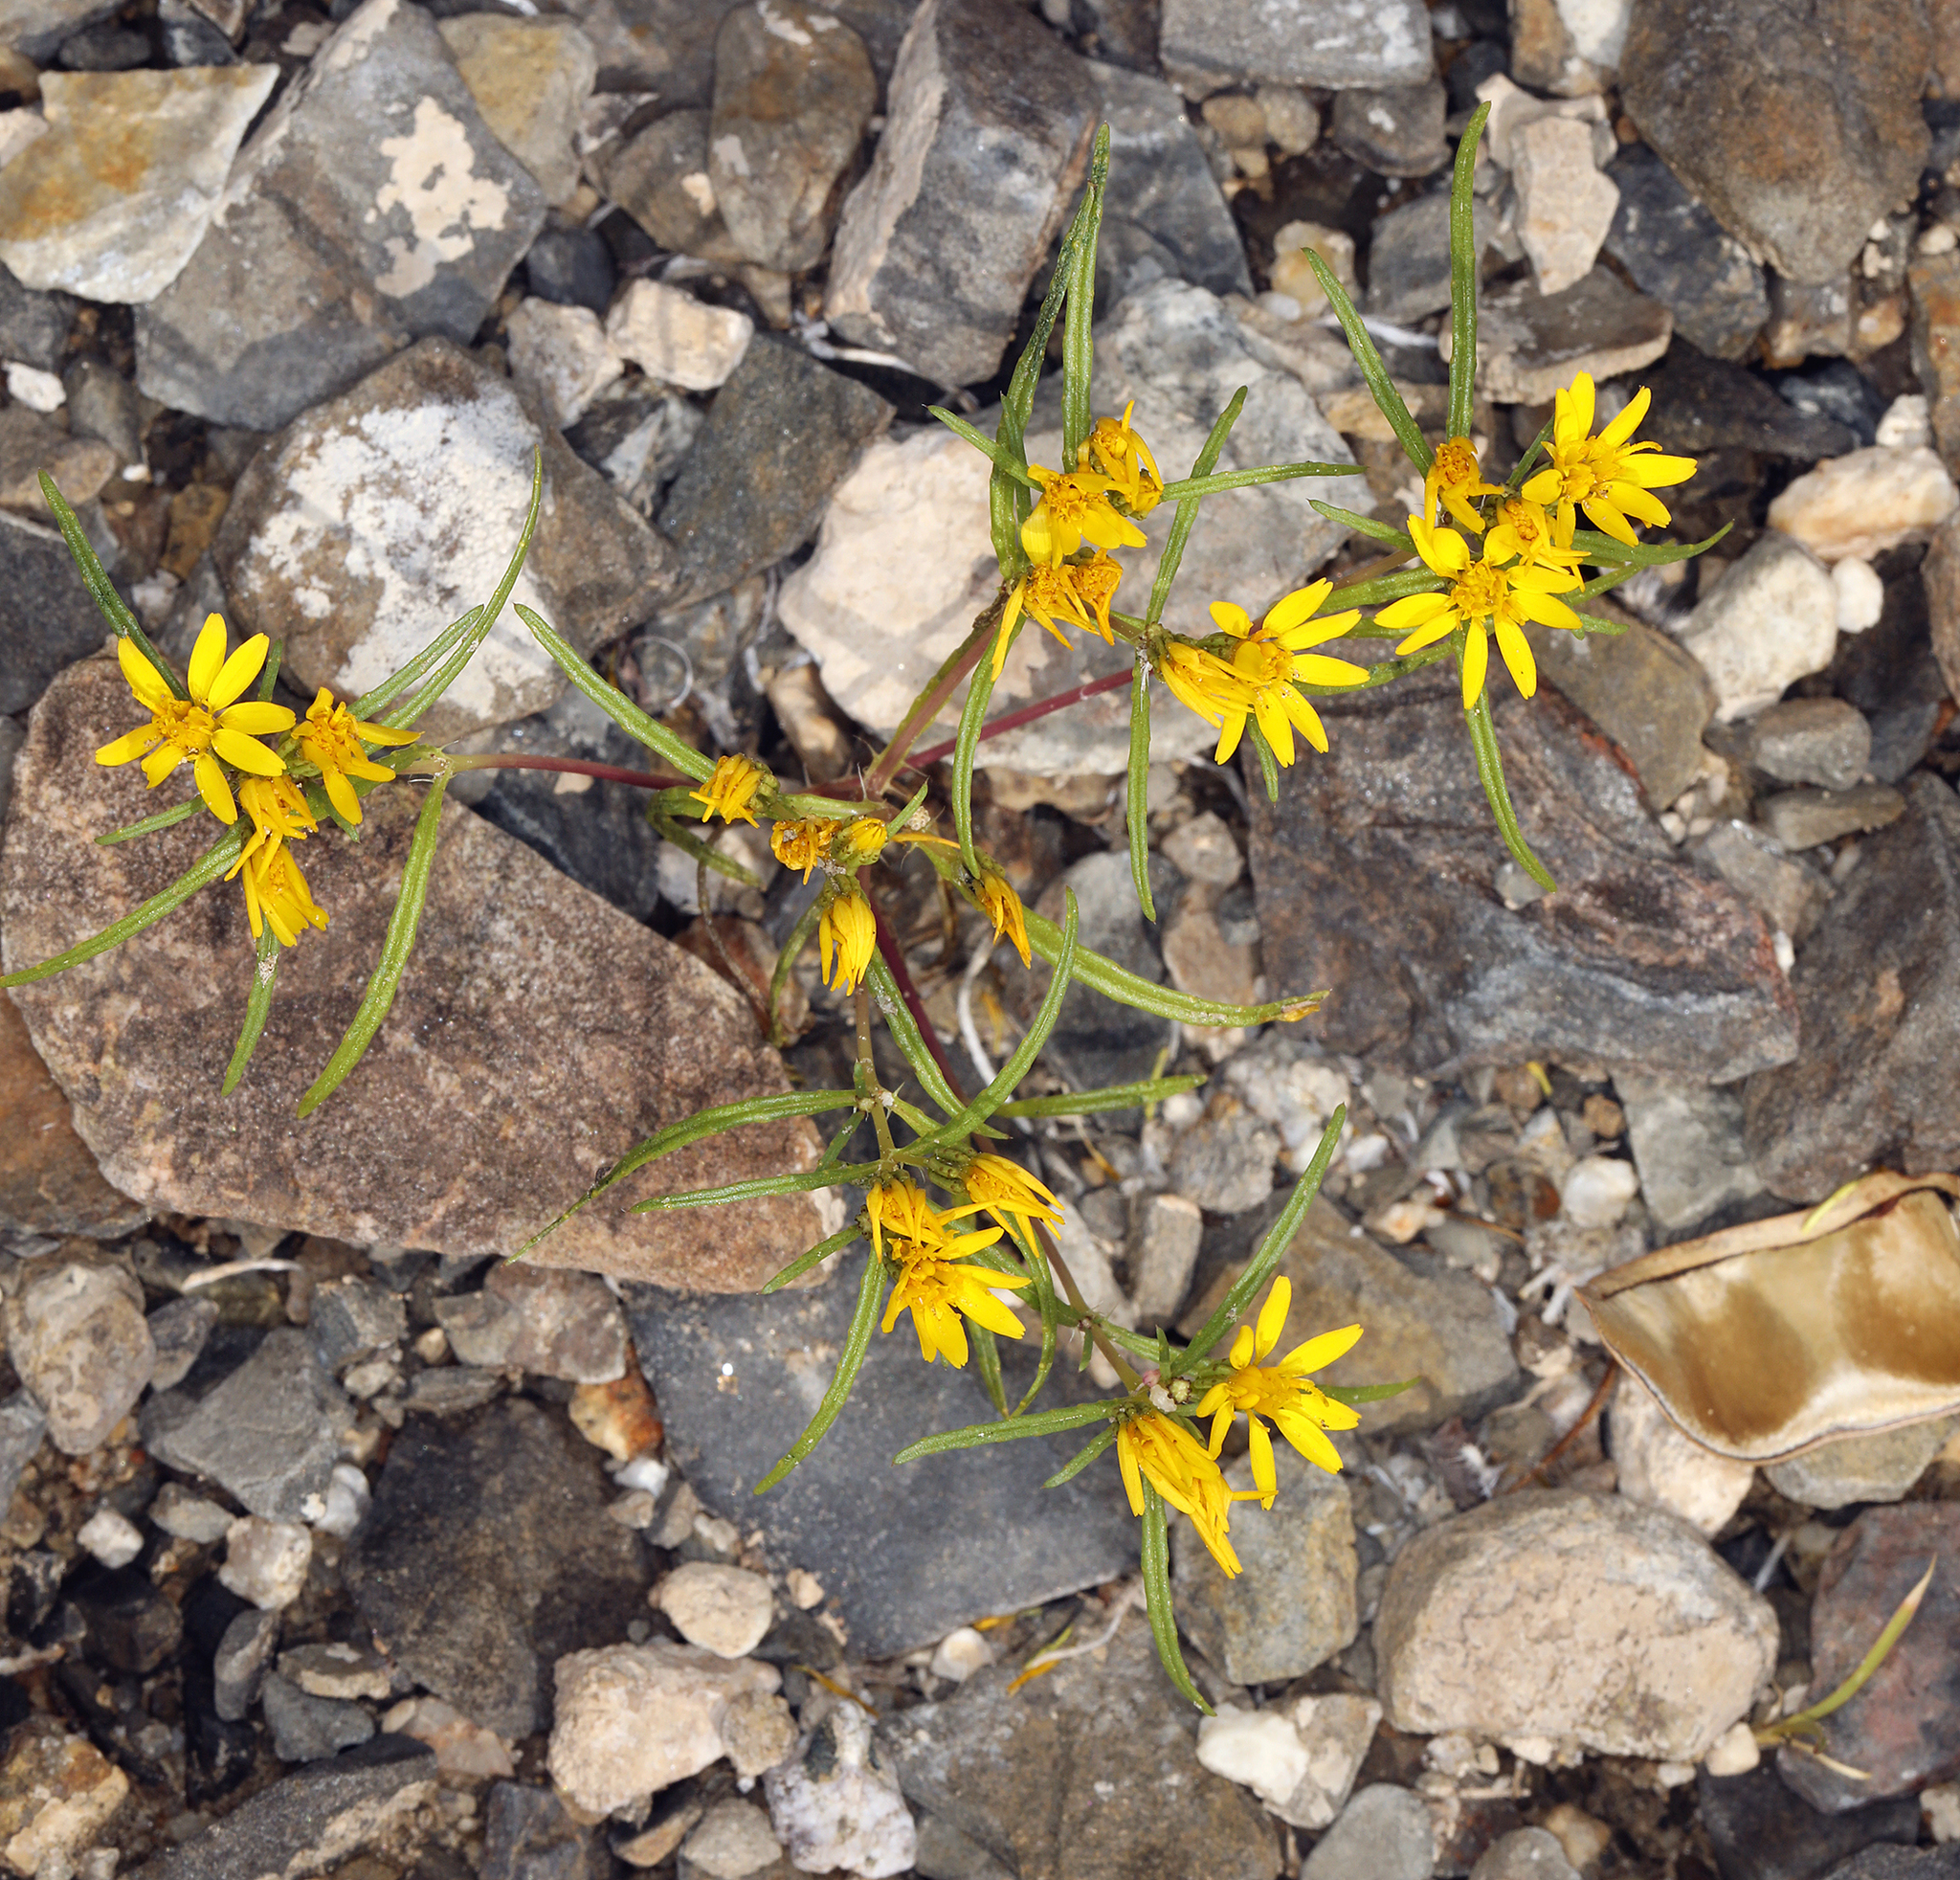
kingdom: Plantae
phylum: Tracheophyta
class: Magnoliopsida
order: Asterales
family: Asteraceae
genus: Pectis
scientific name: Pectis papposa
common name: Many-bristle chinchweed
